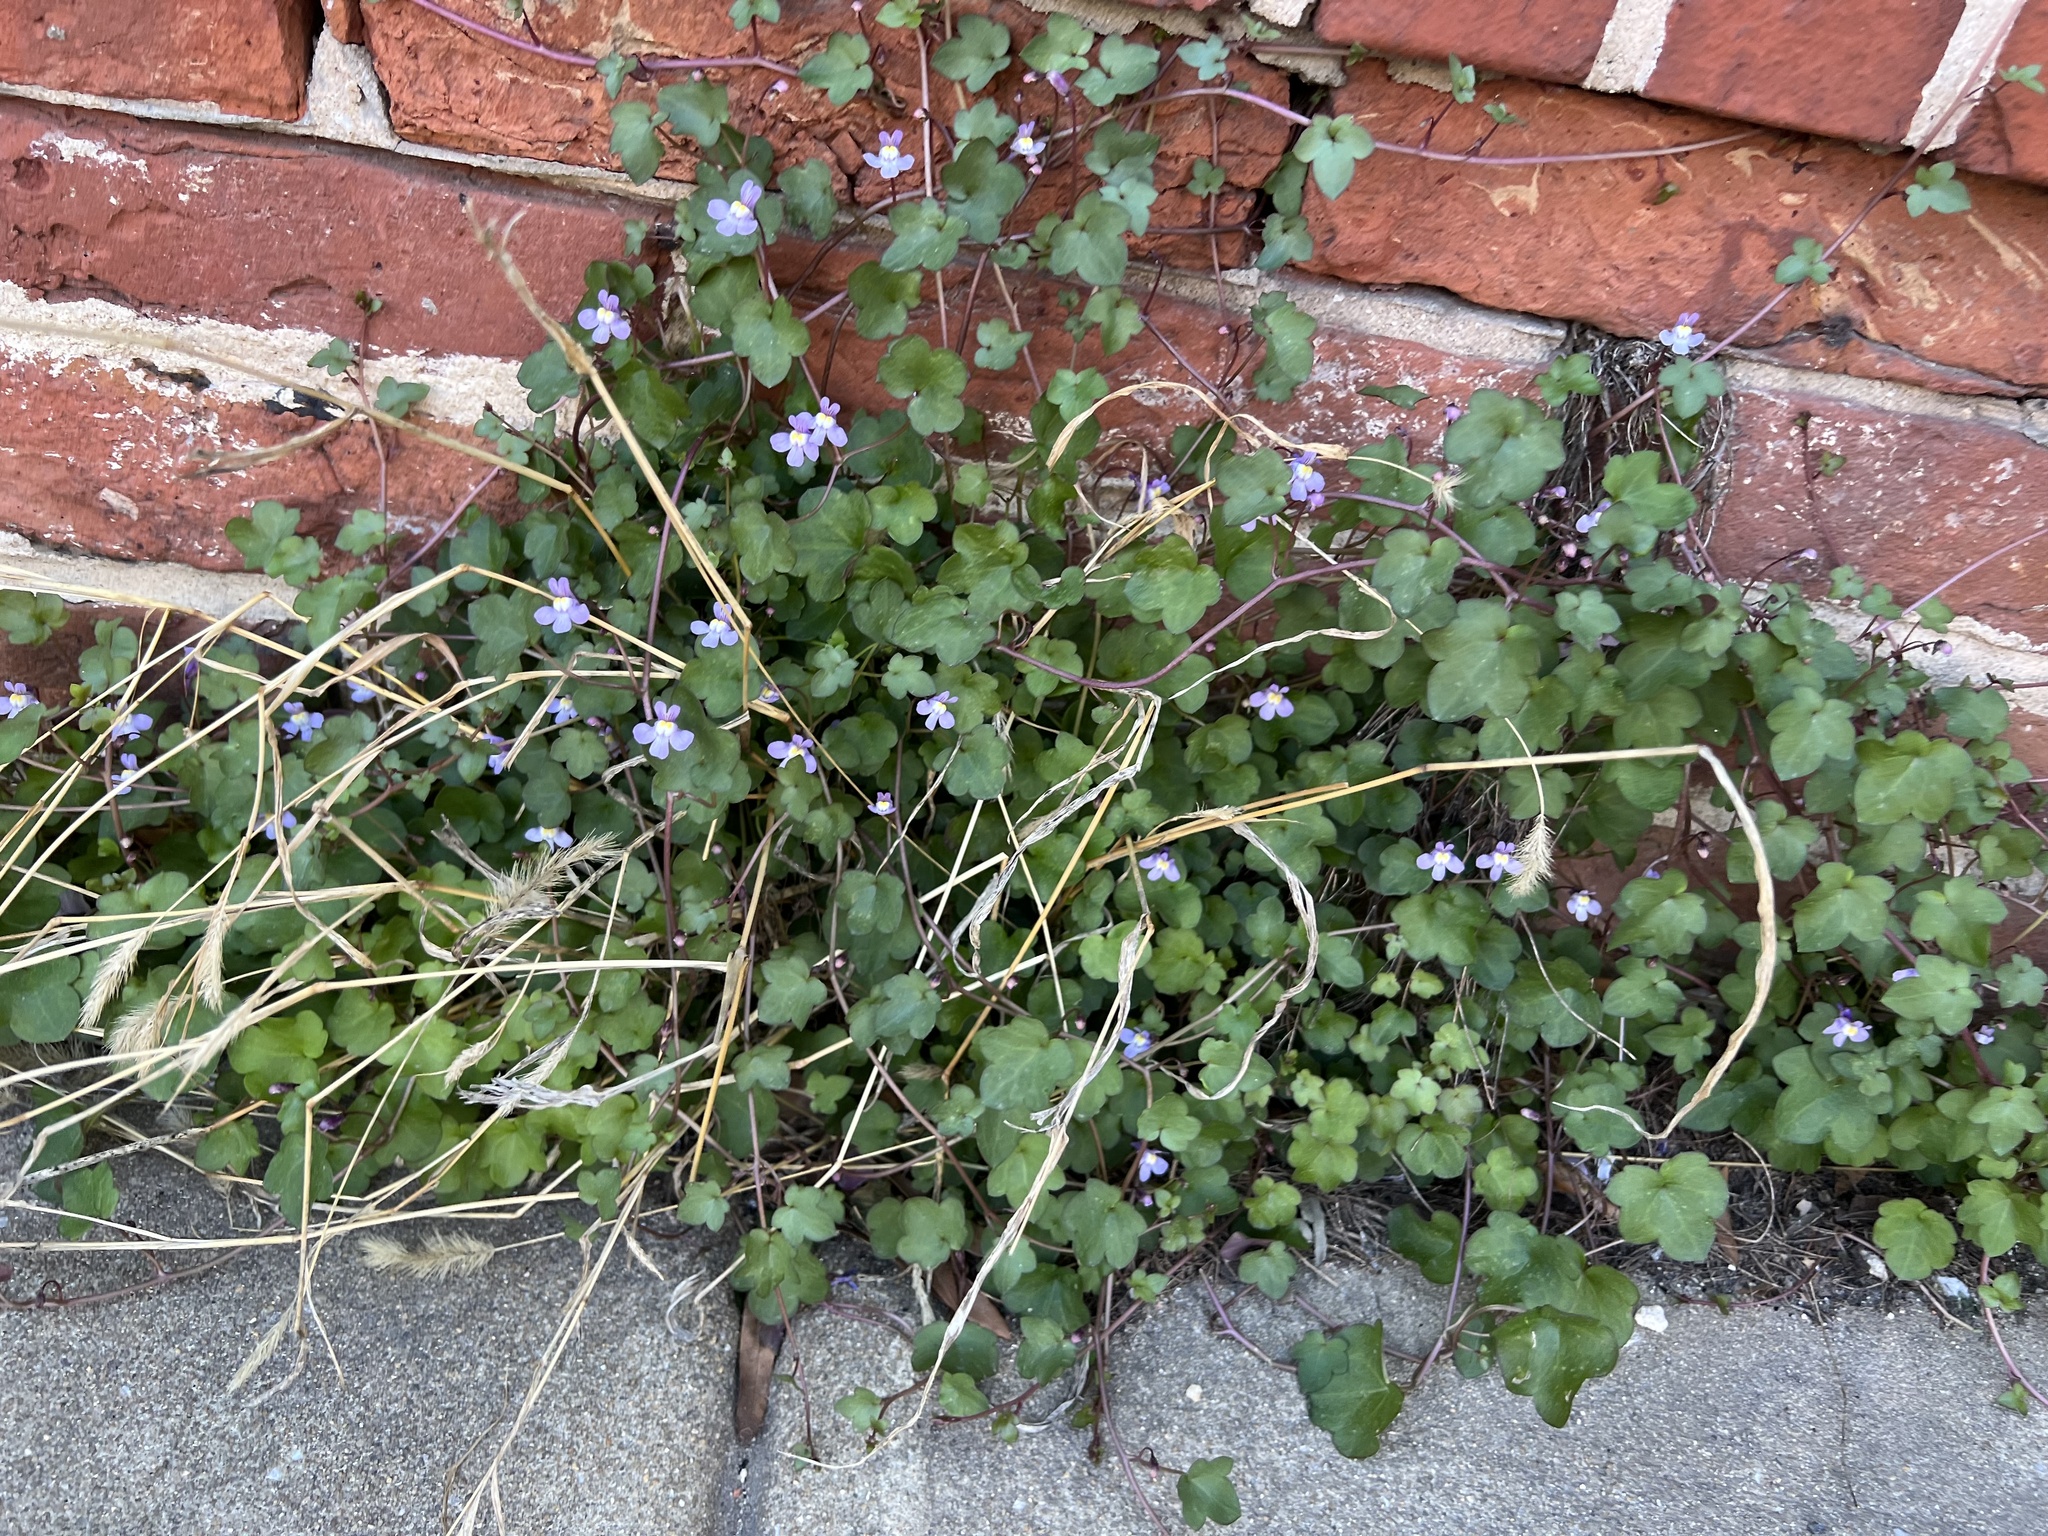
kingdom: Plantae
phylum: Tracheophyta
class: Magnoliopsida
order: Lamiales
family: Plantaginaceae
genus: Cymbalaria
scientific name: Cymbalaria muralis
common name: Ivy-leaved toadflax
